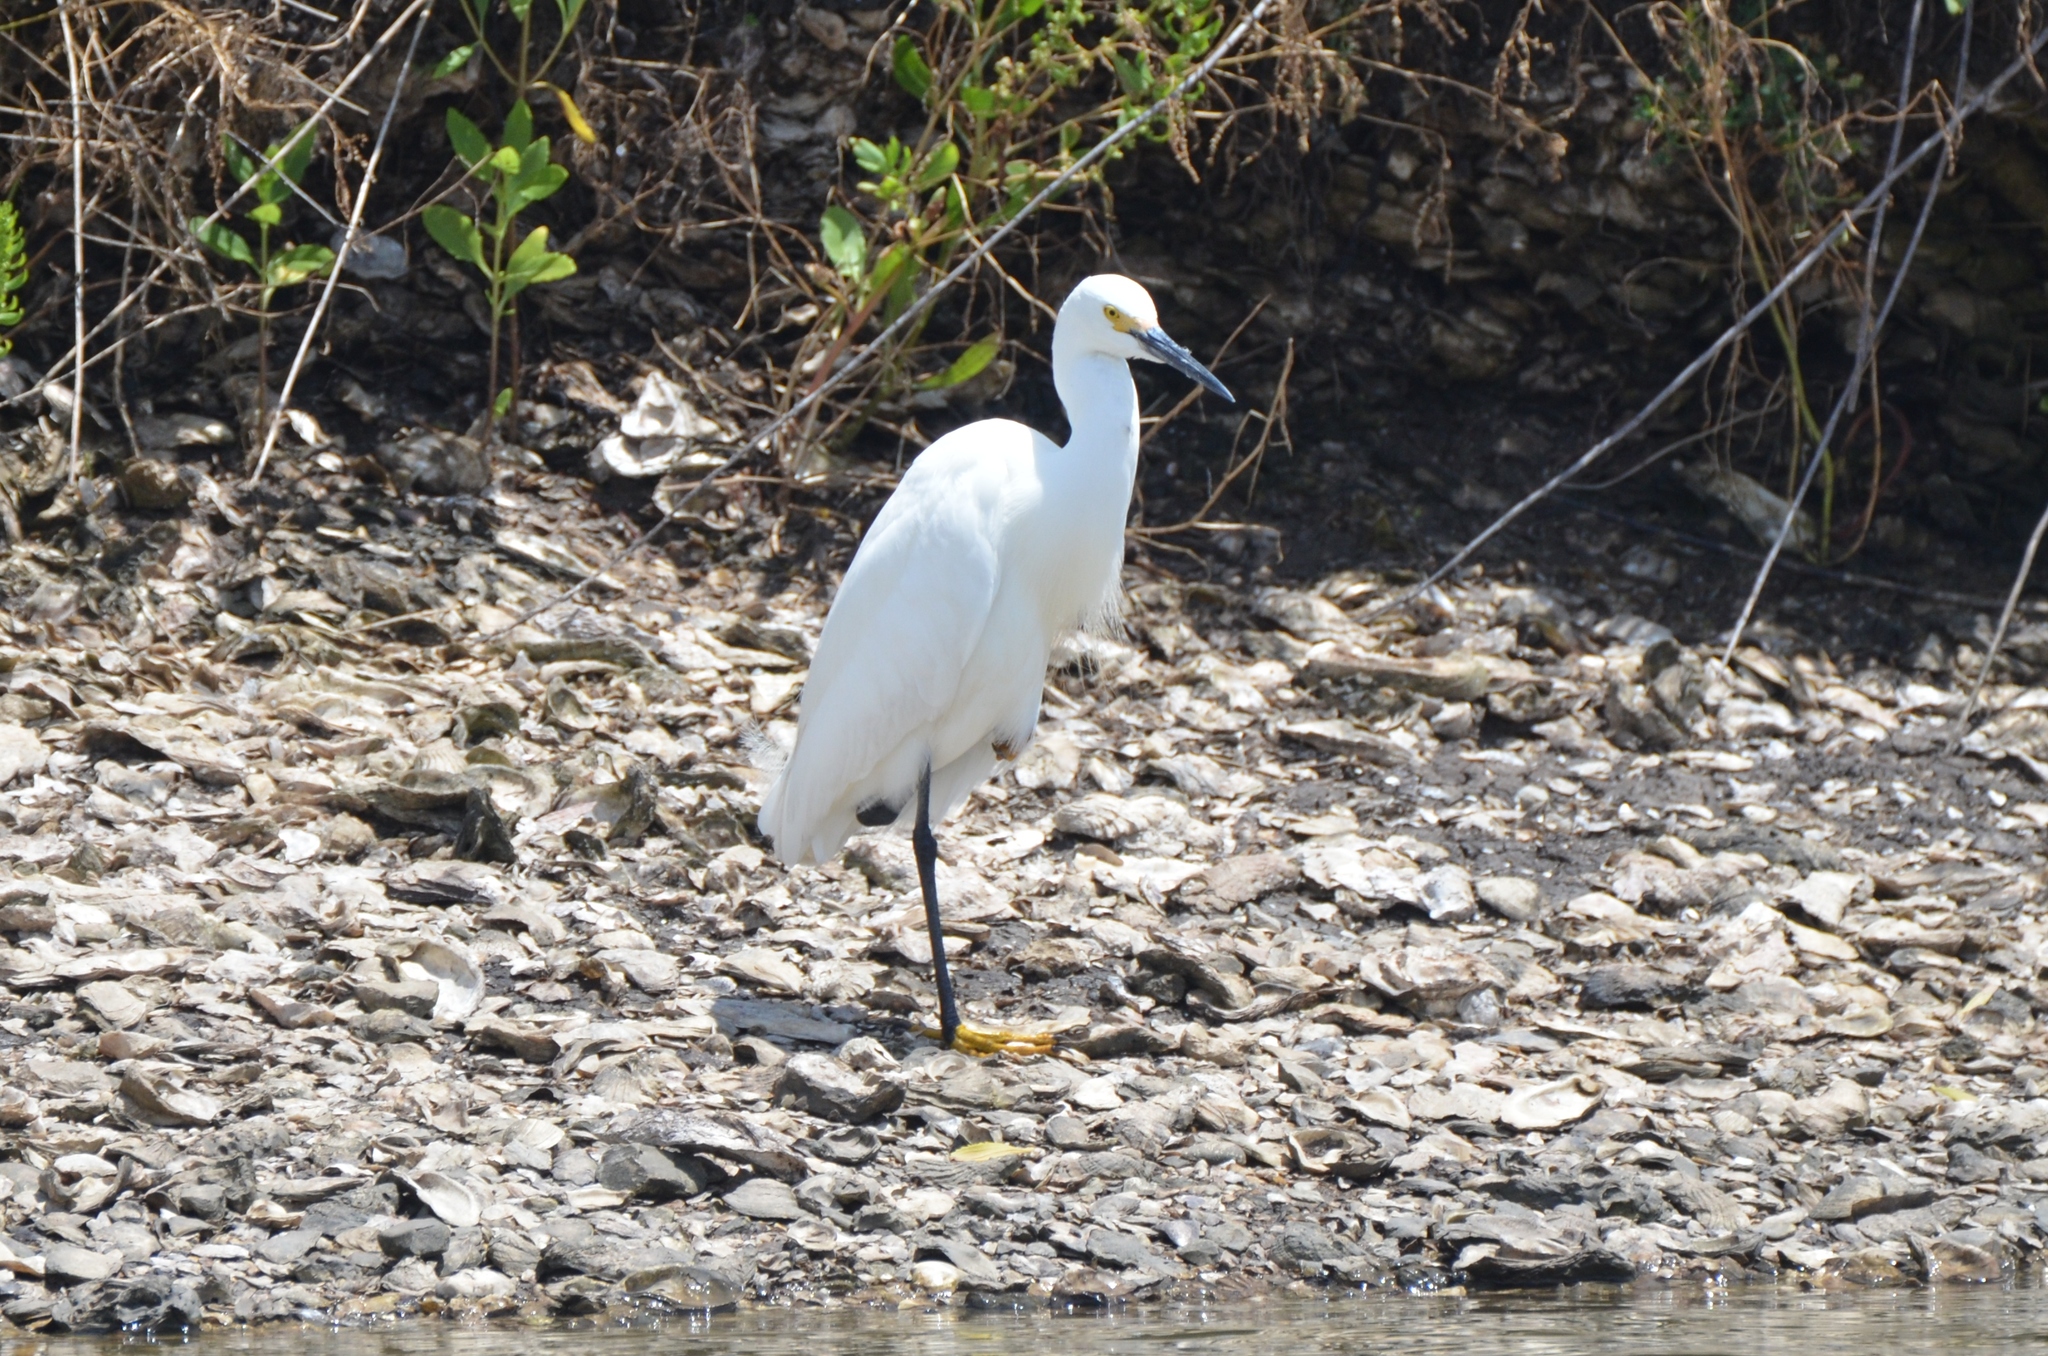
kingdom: Animalia
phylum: Chordata
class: Aves
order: Pelecaniformes
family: Ardeidae
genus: Egretta
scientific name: Egretta thula
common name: Snowy egret
